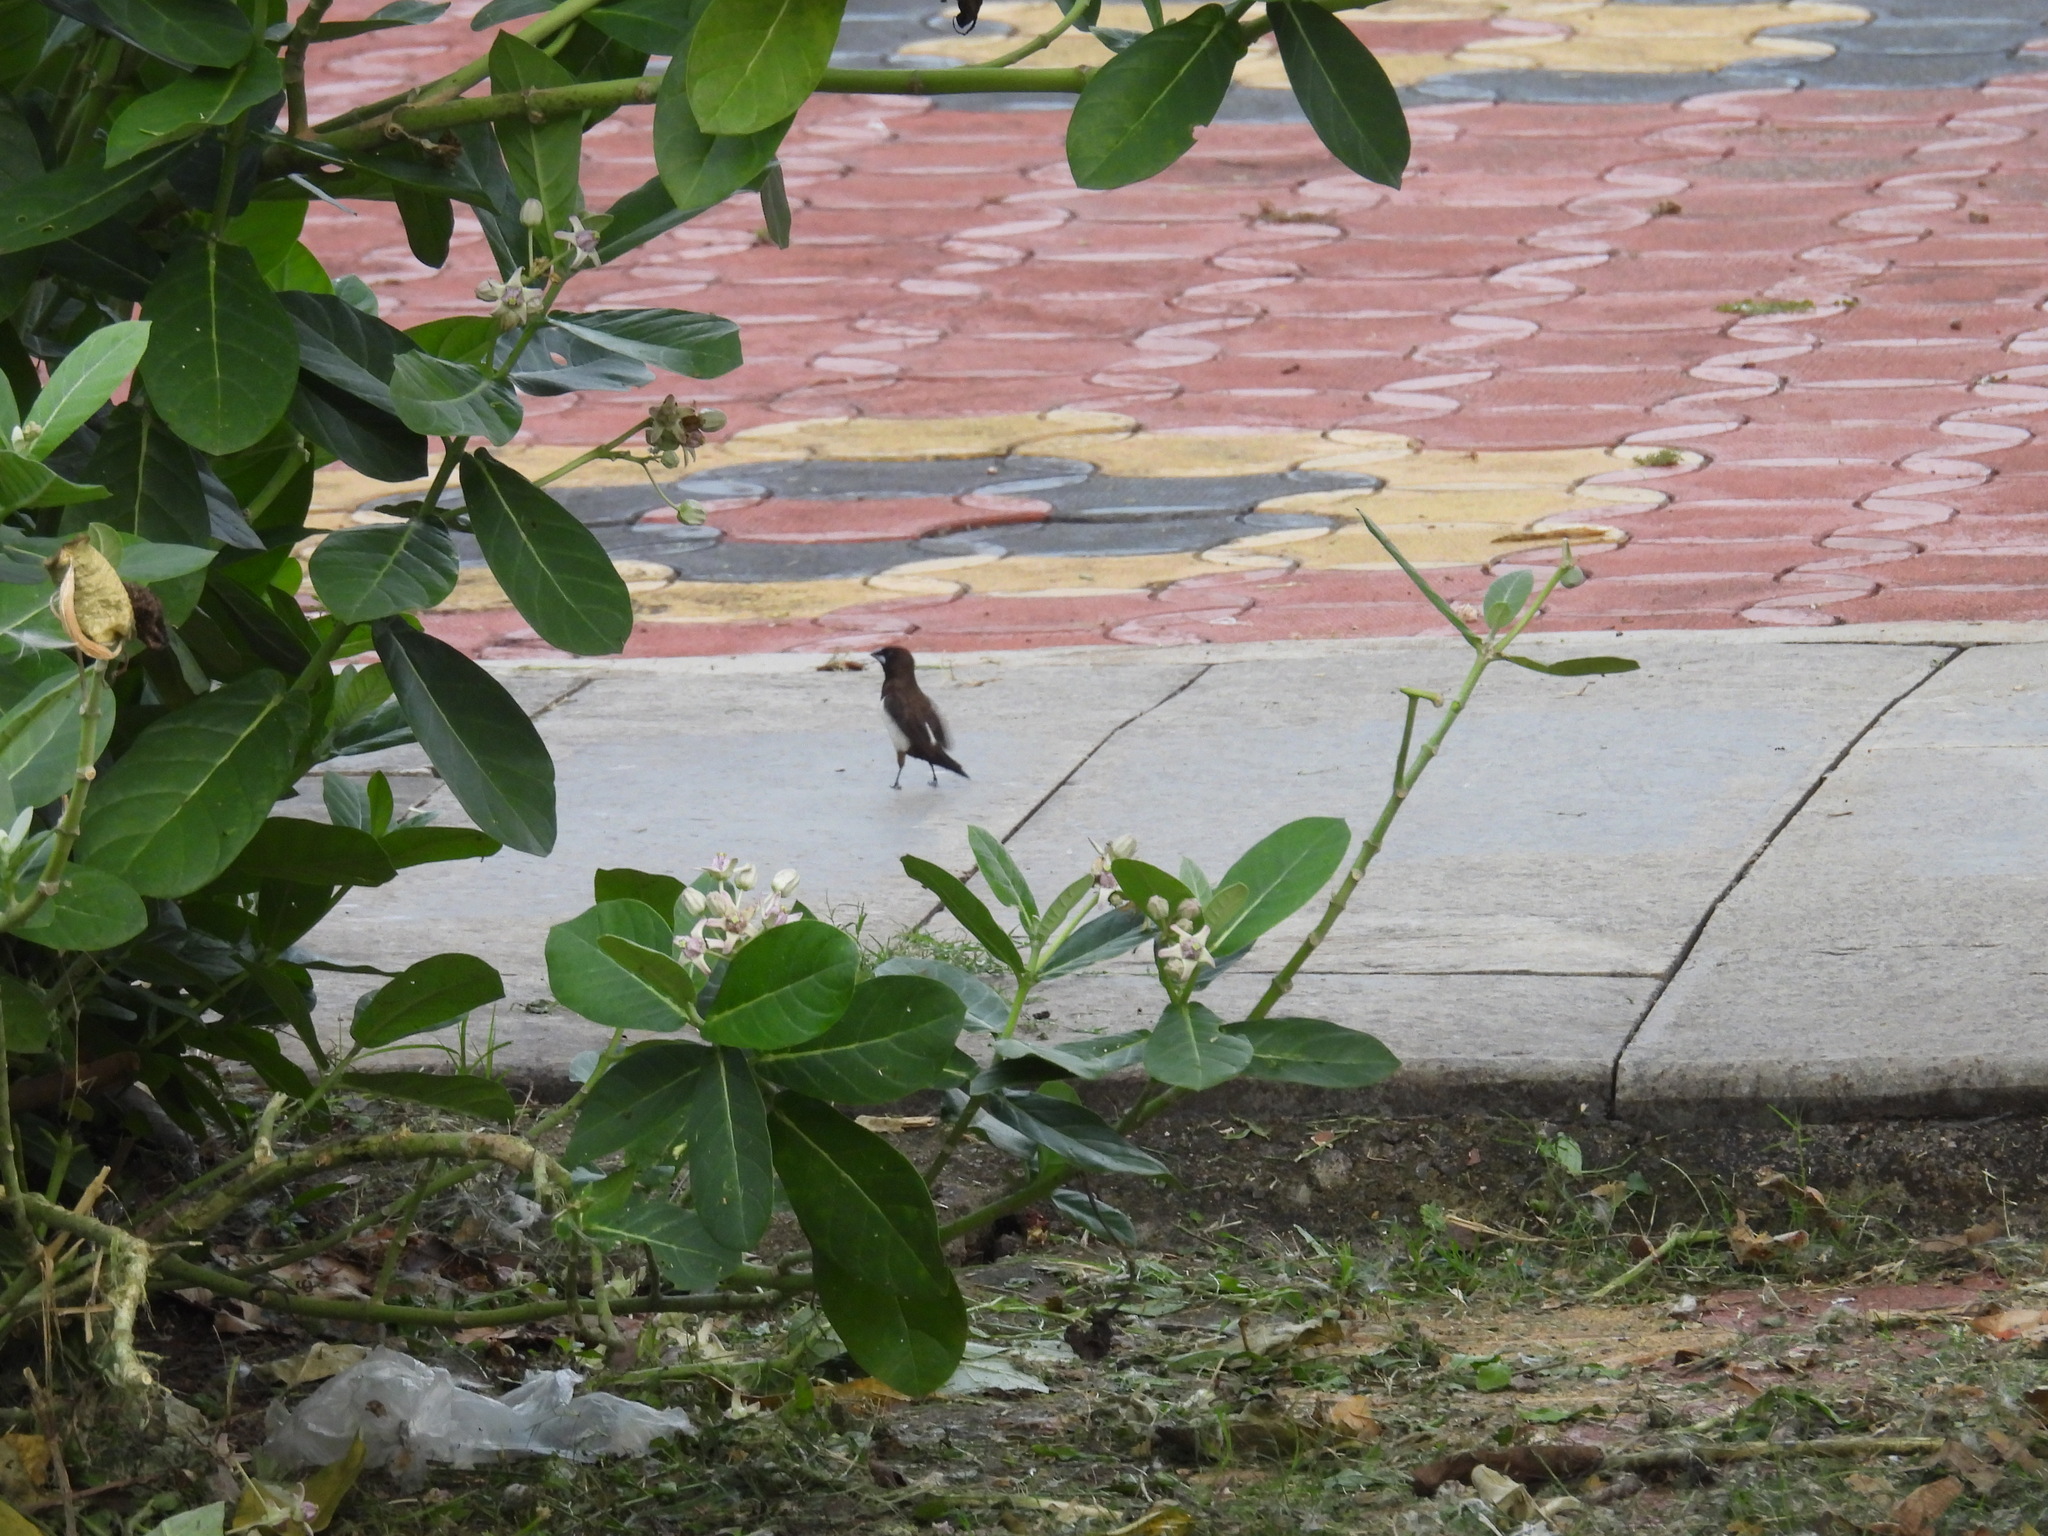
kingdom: Animalia
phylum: Chordata
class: Aves
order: Passeriformes
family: Estrildidae
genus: Lonchura
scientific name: Lonchura striata
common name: White-rumped munia
